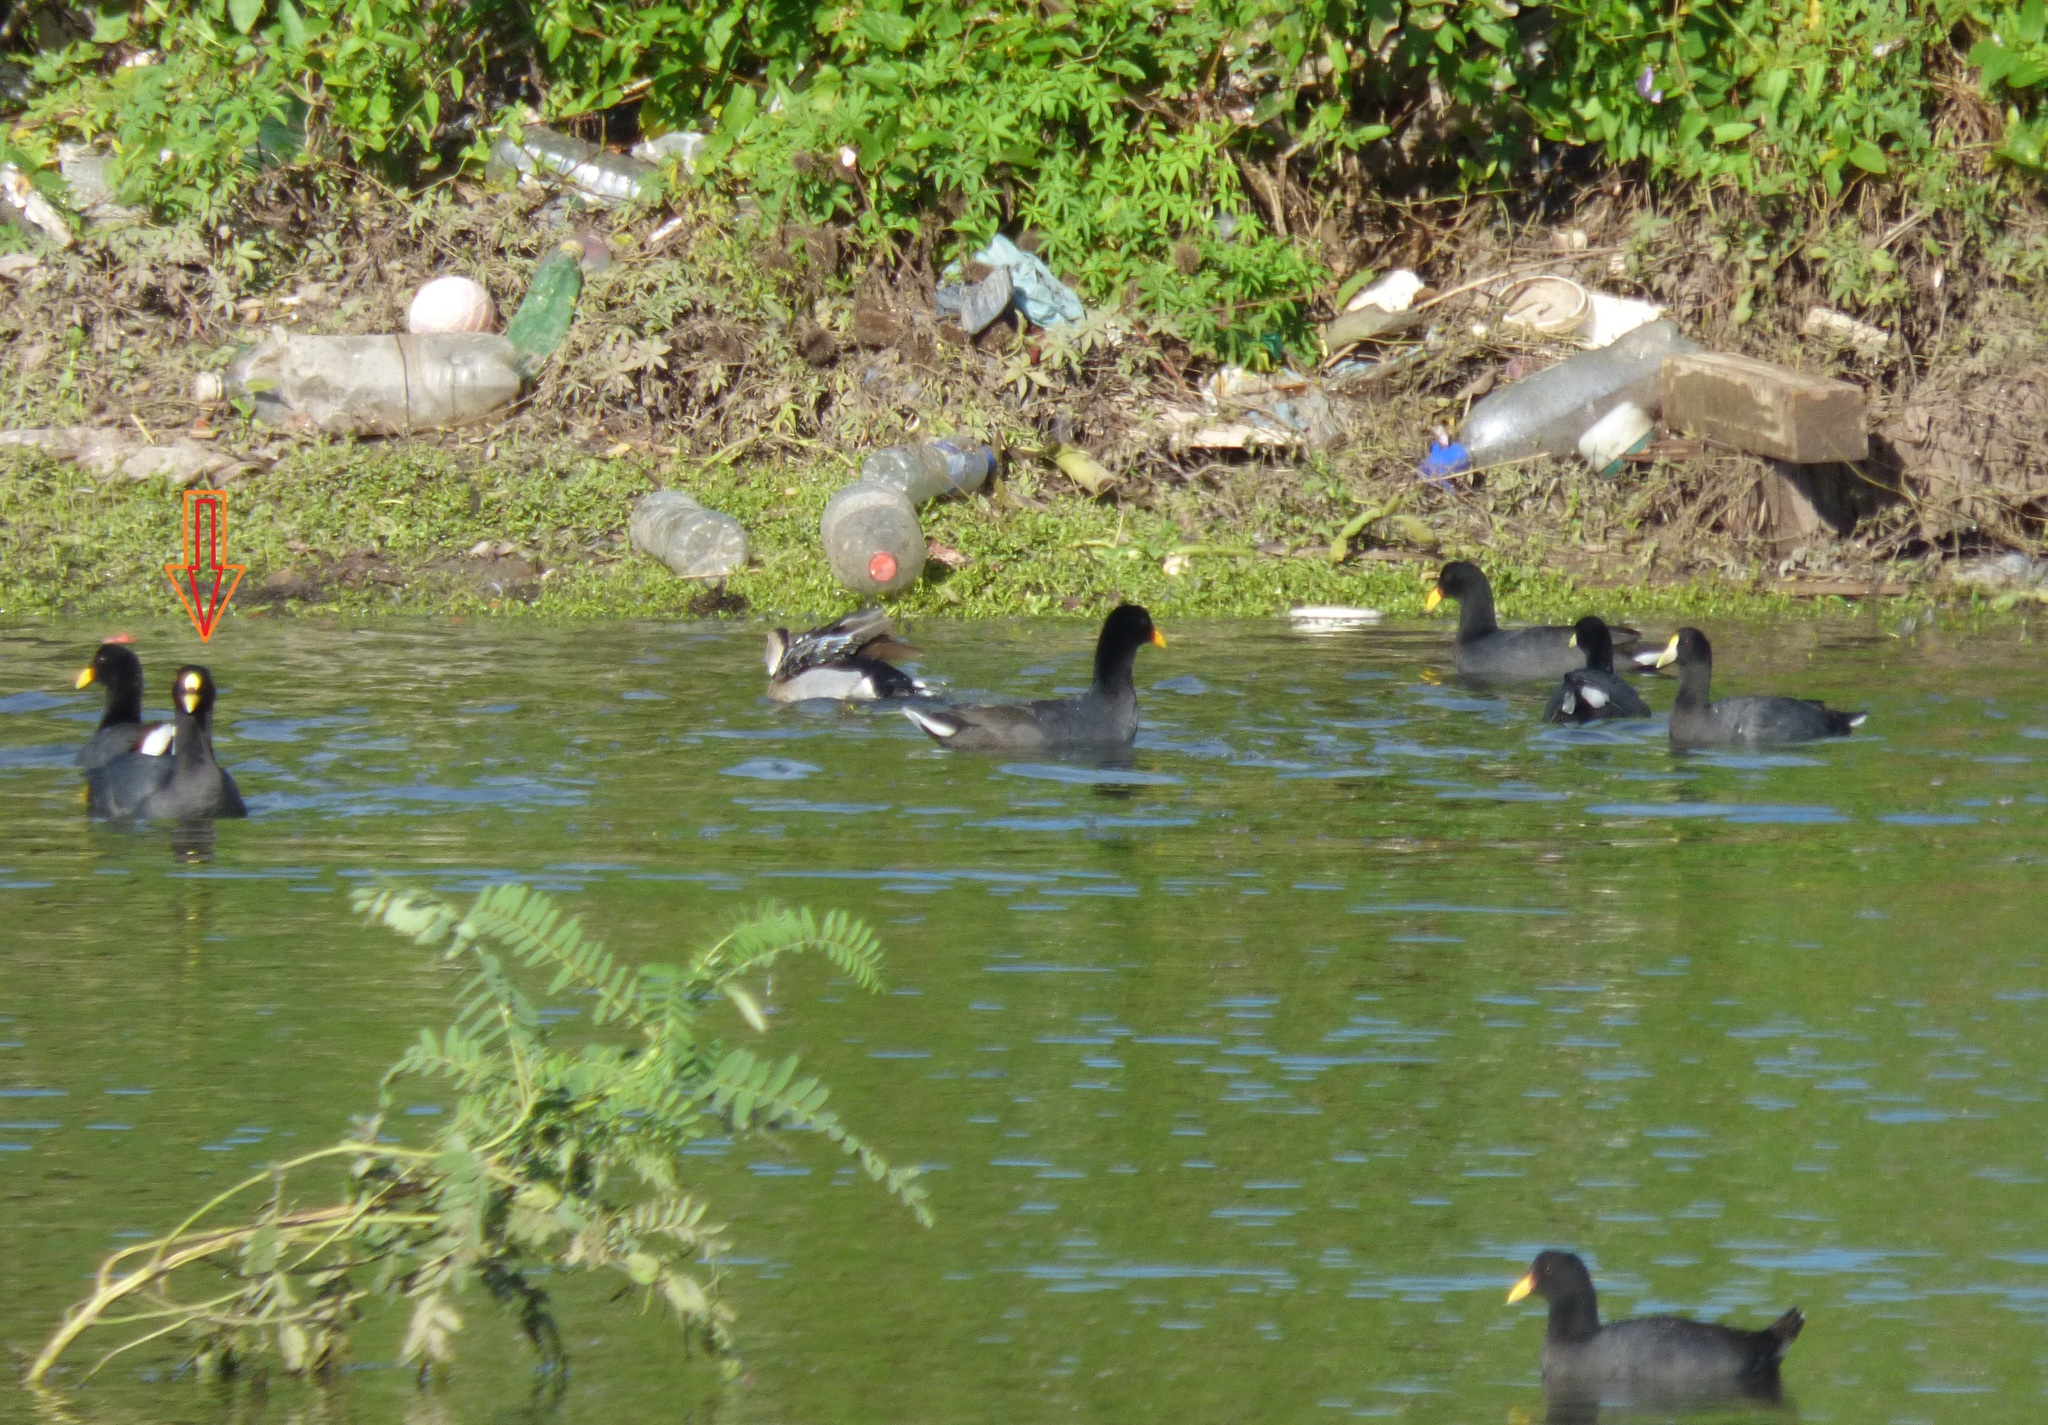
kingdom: Animalia
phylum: Chordata
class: Aves
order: Gruiformes
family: Rallidae
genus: Fulica
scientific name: Fulica armillata
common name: Red-gartered coot
